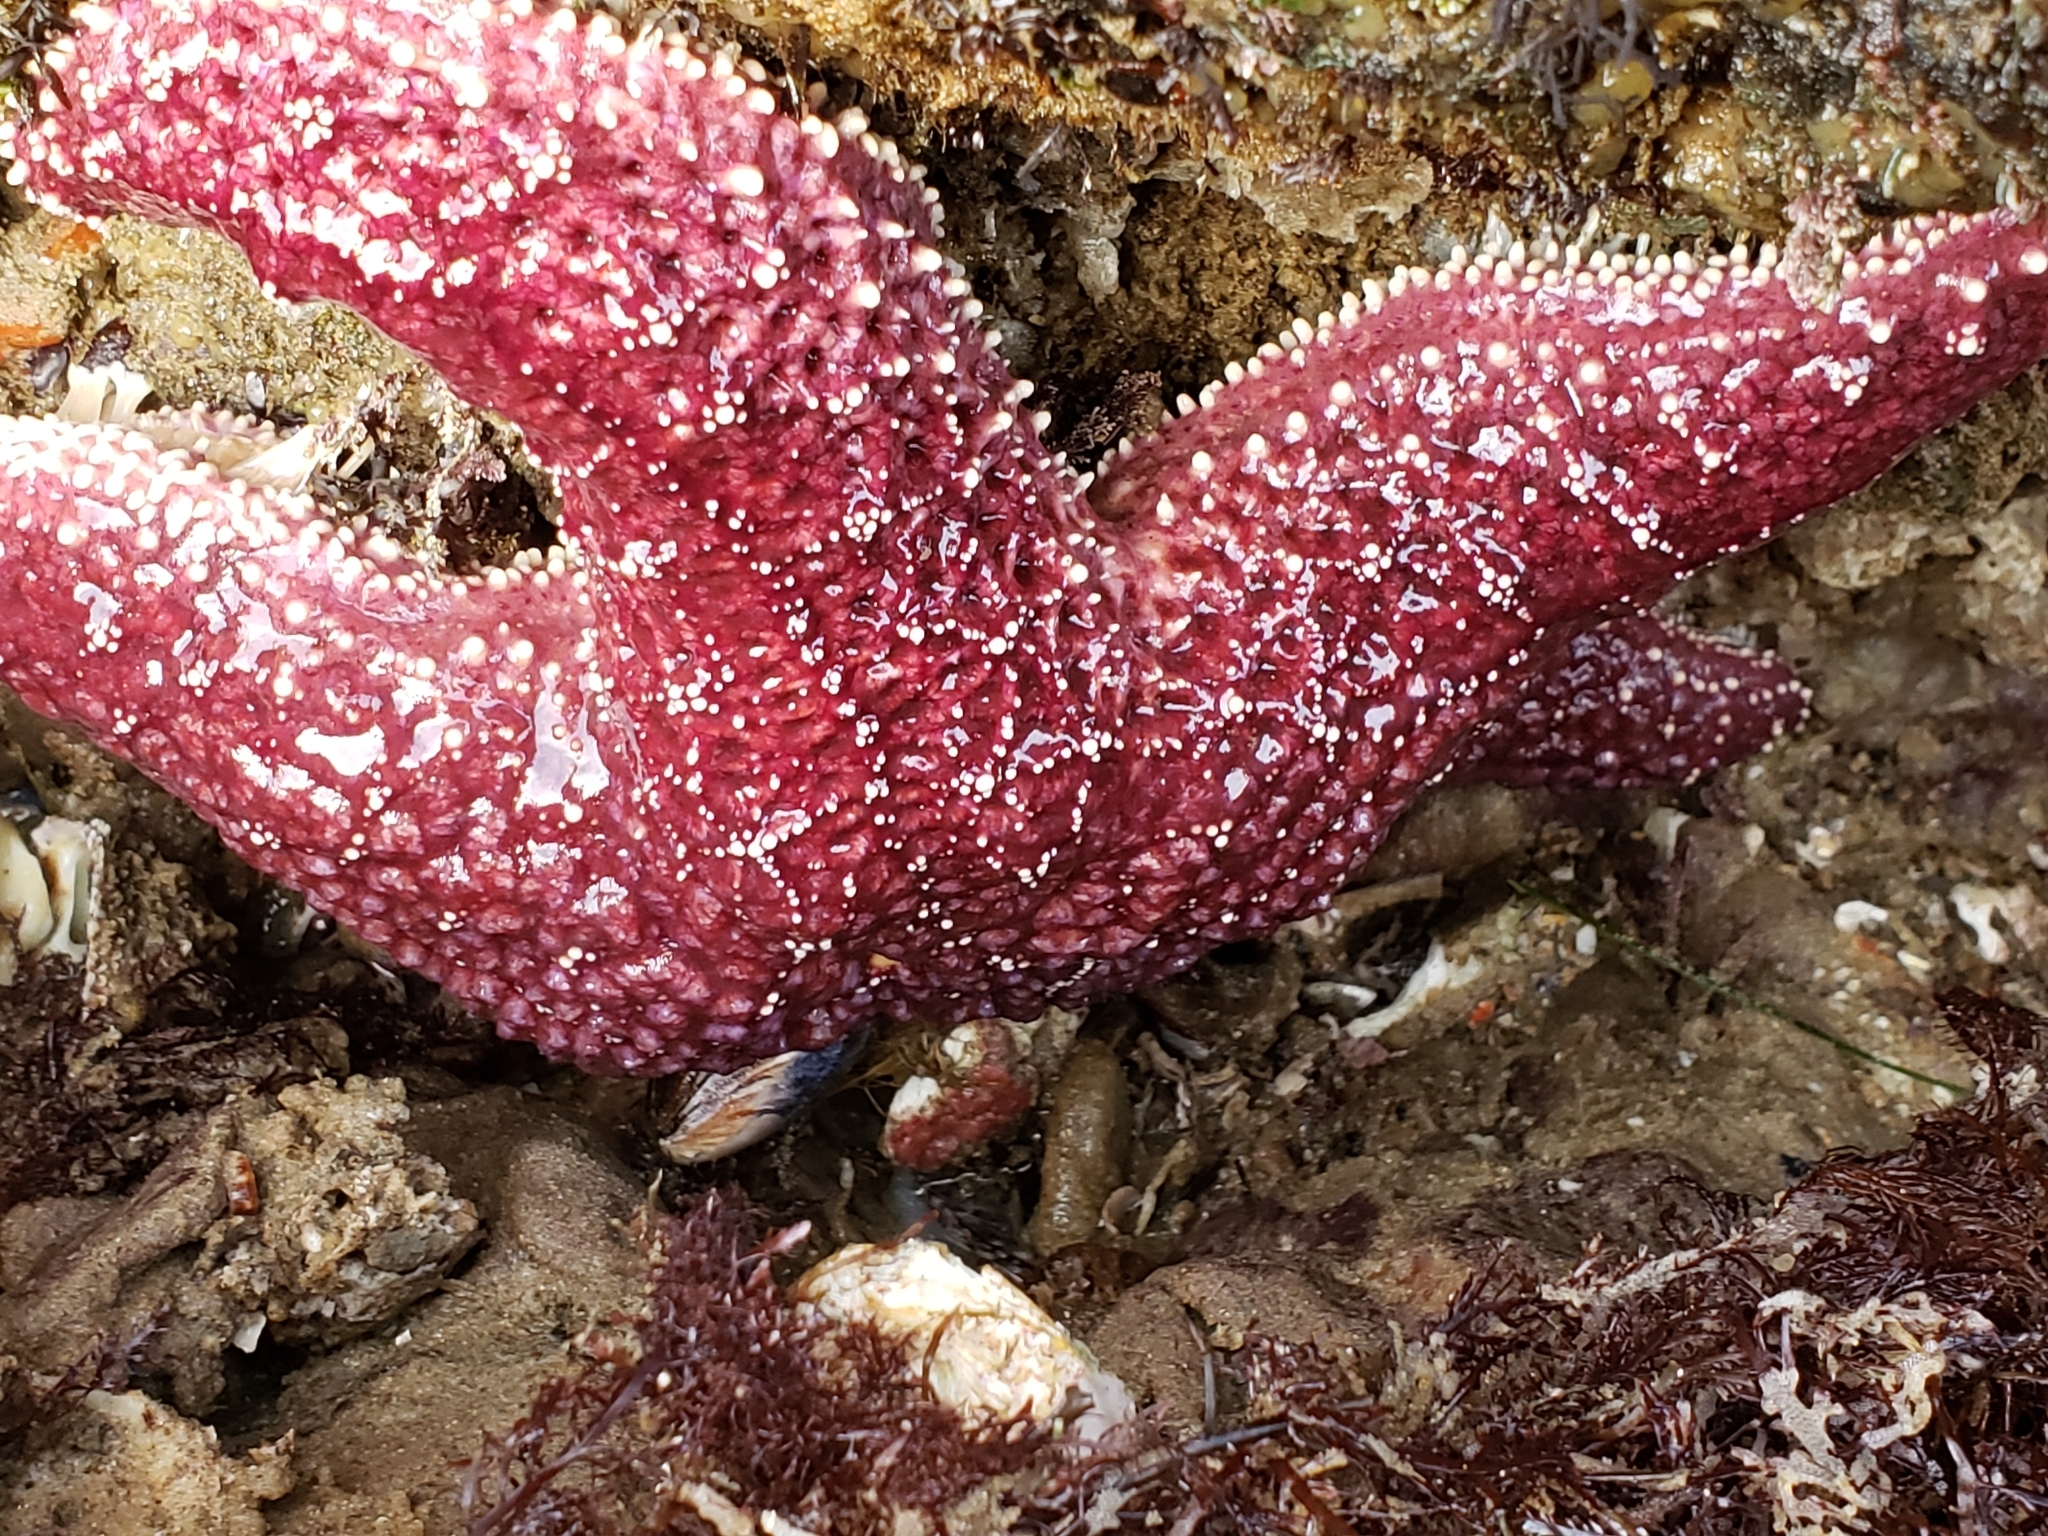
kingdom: Animalia
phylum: Echinodermata
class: Asteroidea
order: Forcipulatida
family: Asteriidae
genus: Pisaster
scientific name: Pisaster ochraceus
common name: Ochre stars
